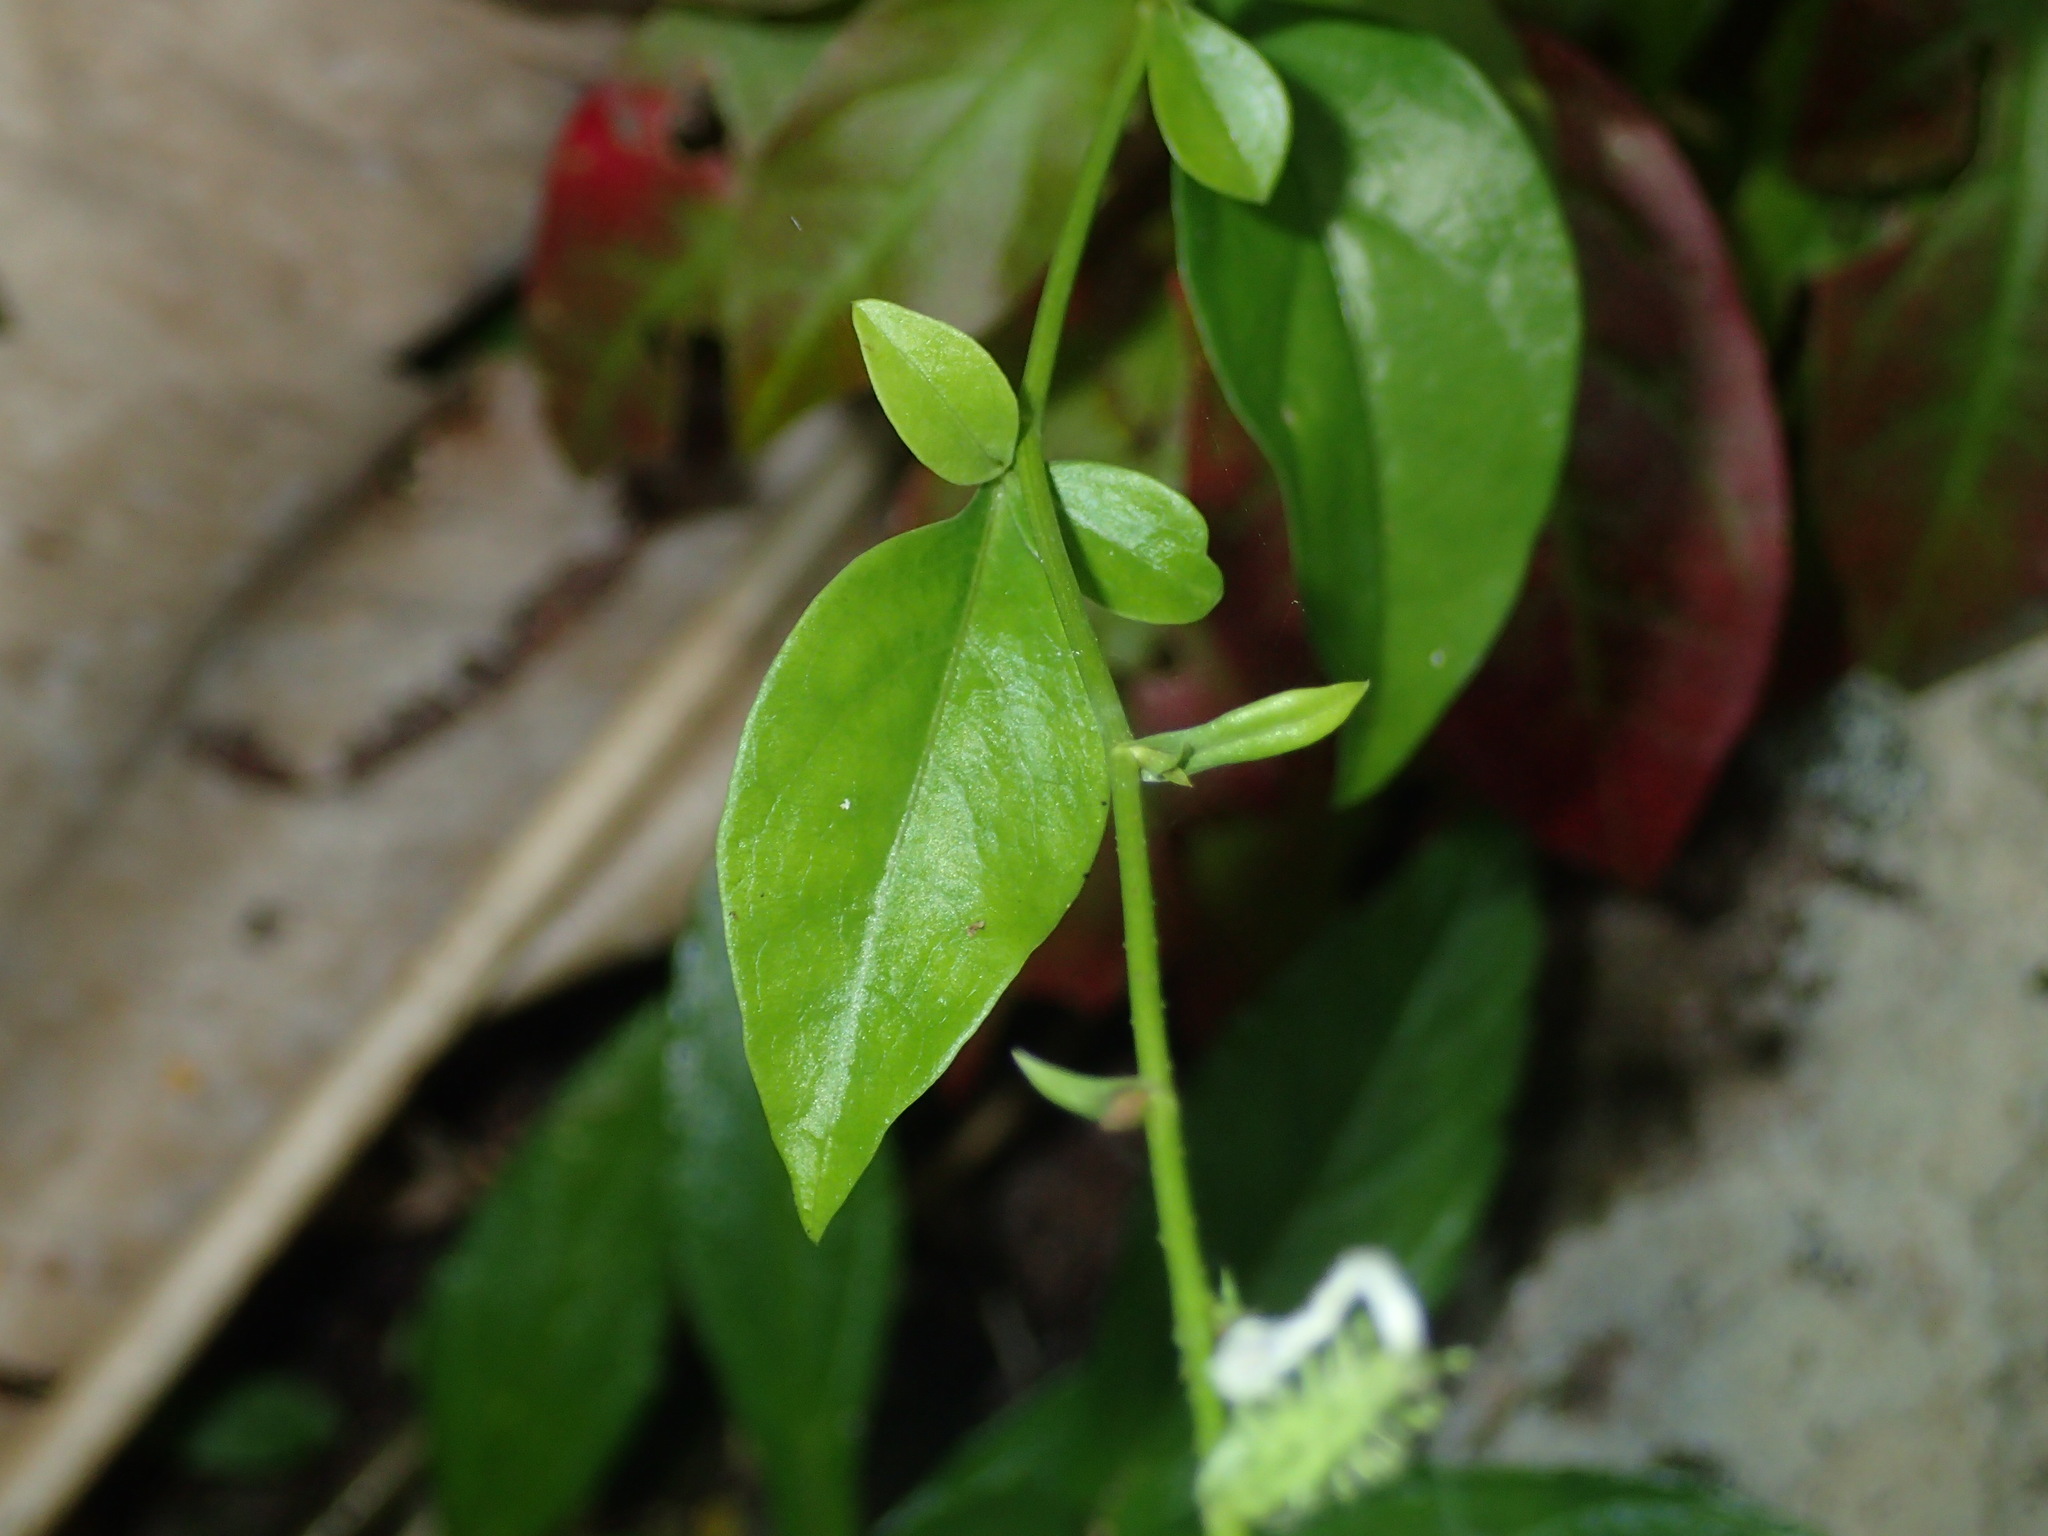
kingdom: Plantae
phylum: Tracheophyta
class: Magnoliopsida
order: Caryophyllales
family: Plumbaginaceae
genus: Plumbago
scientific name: Plumbago zeylanica
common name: Doctorbush
